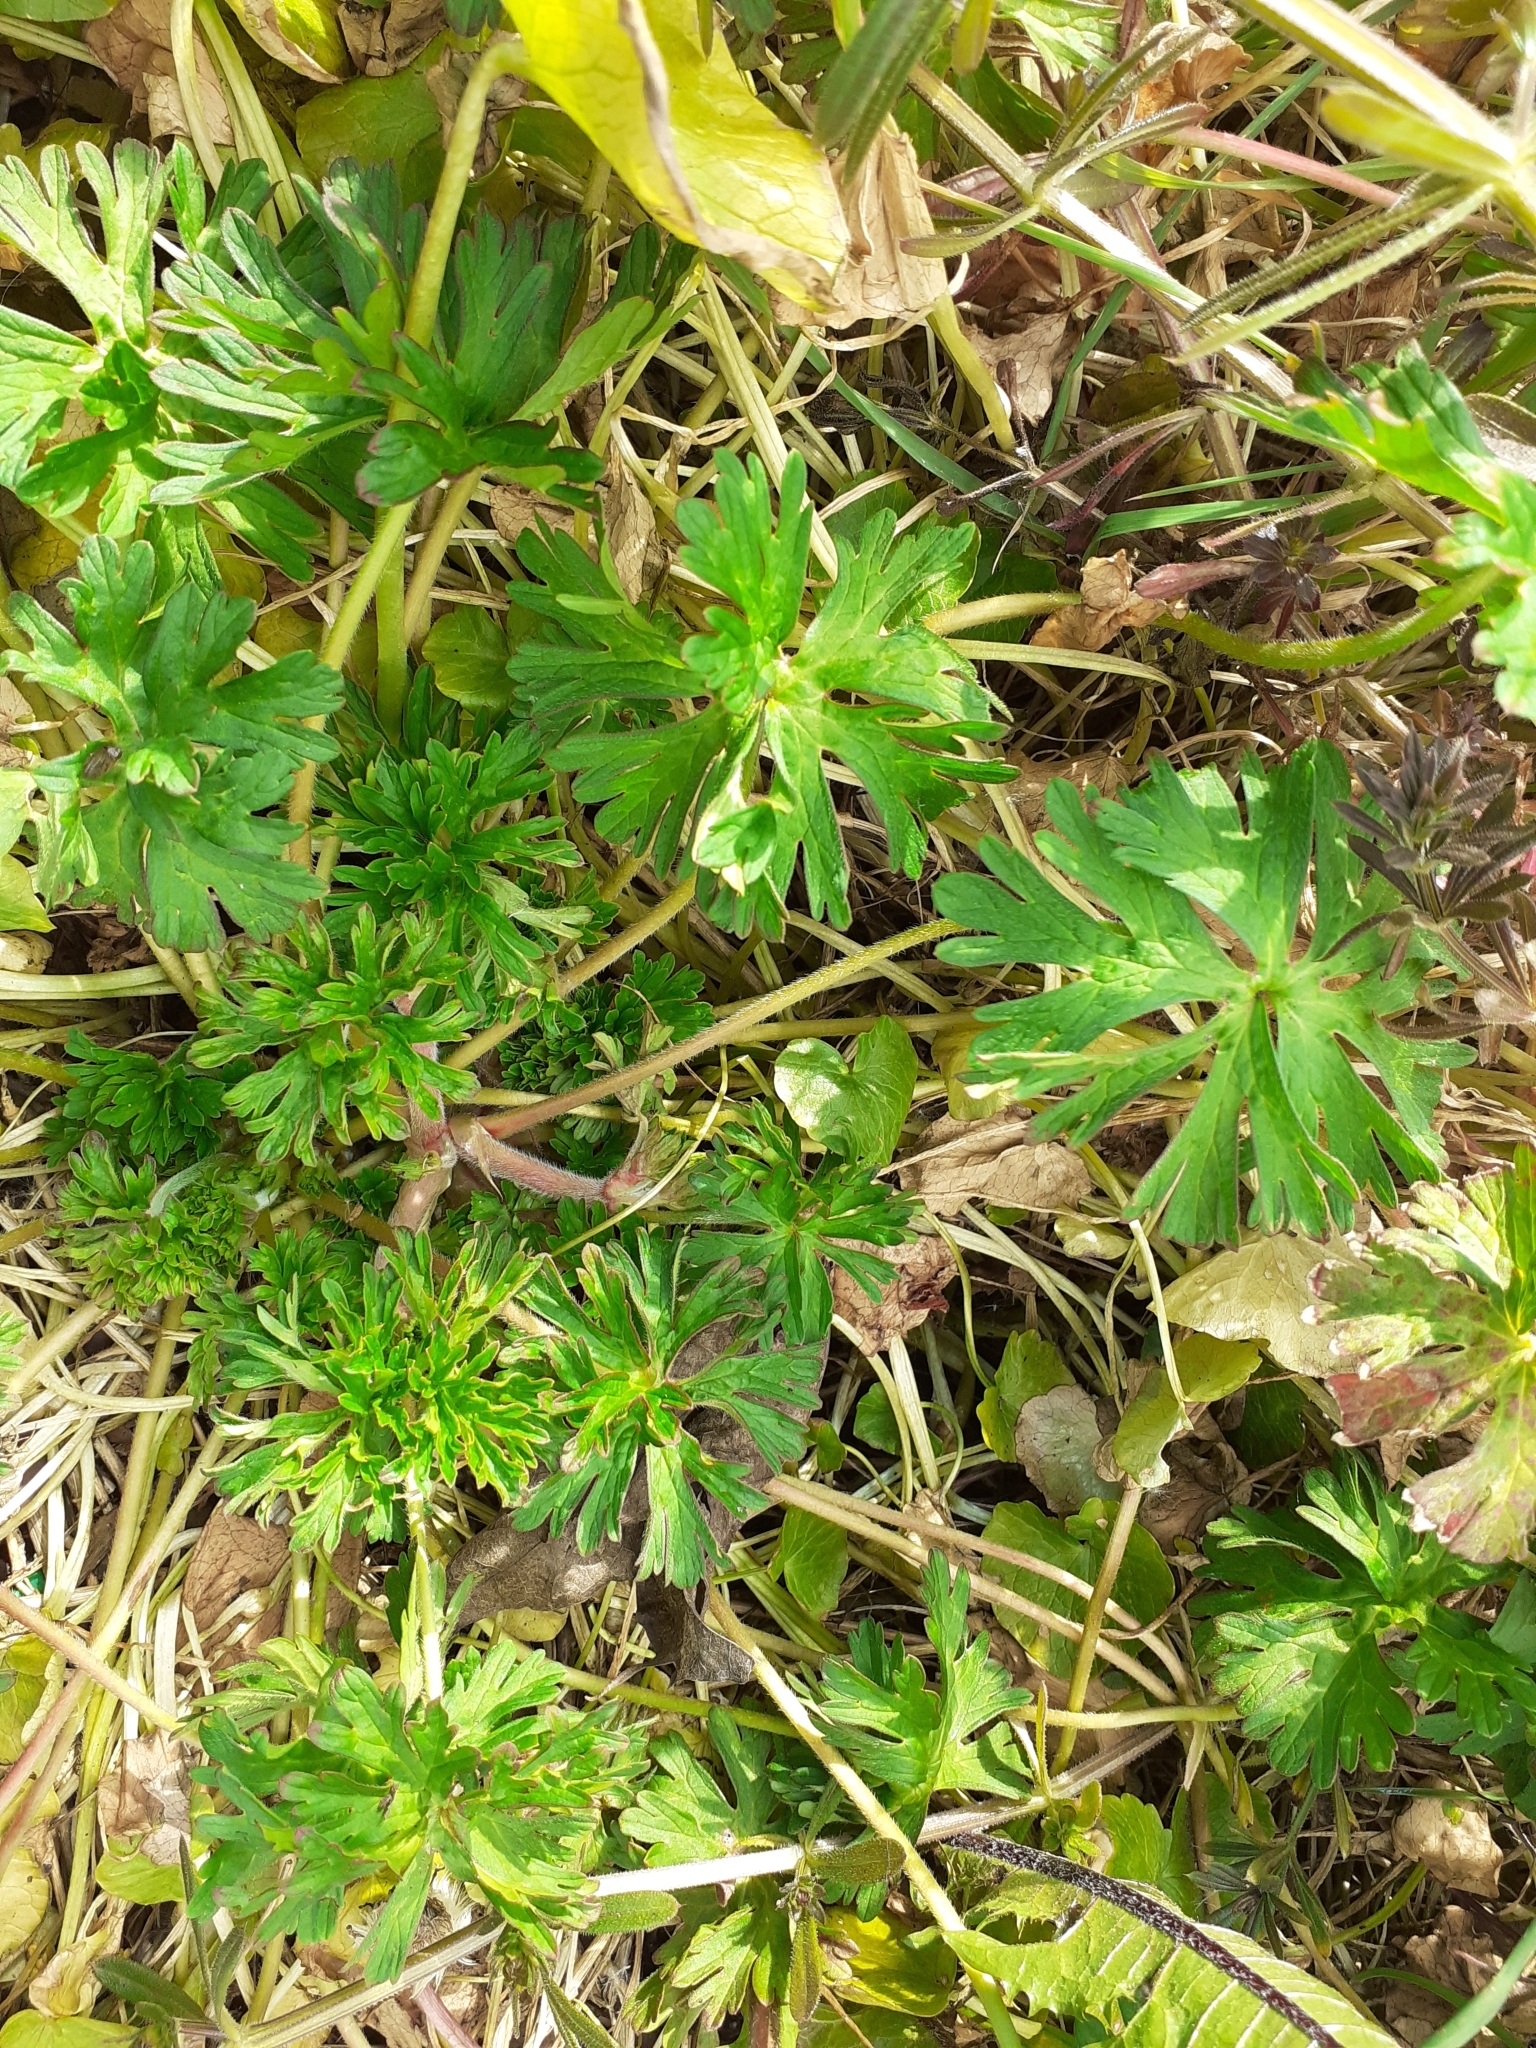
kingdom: Plantae
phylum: Tracheophyta
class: Magnoliopsida
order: Geraniales
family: Geraniaceae
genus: Geranium
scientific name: Geranium dissectum
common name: Cut-leaved crane's-bill
